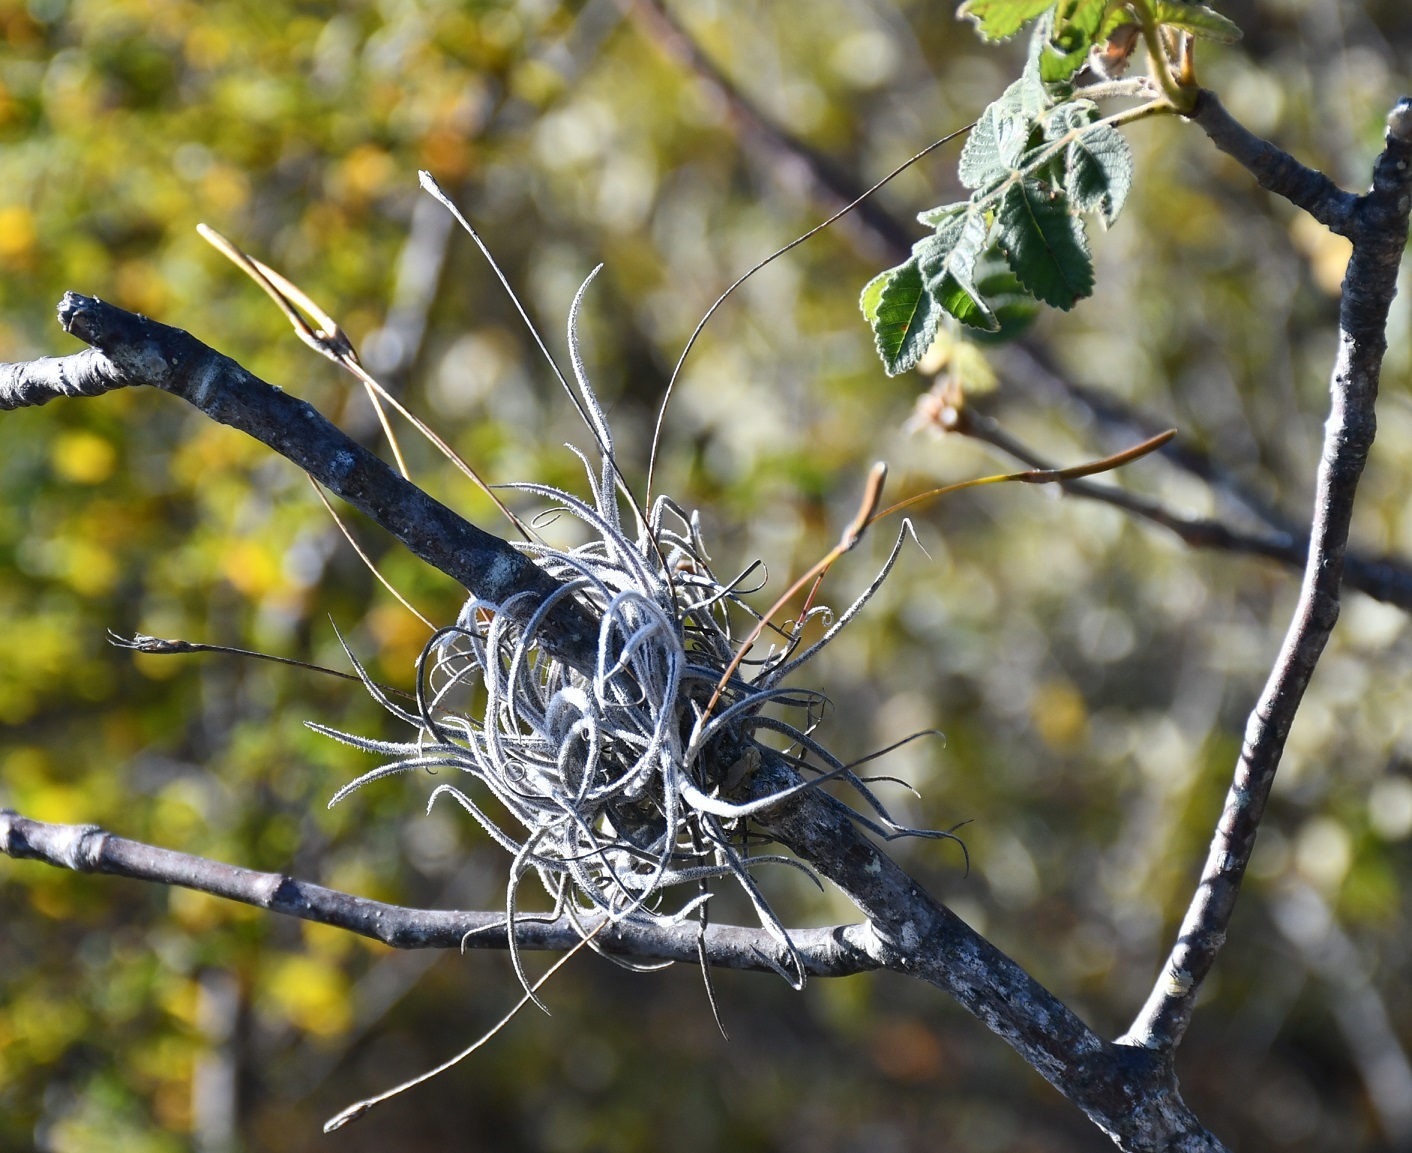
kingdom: Plantae
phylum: Tracheophyta
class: Liliopsida
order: Poales
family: Bromeliaceae
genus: Tillandsia
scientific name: Tillandsia recurvata
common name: Small ballmoss
